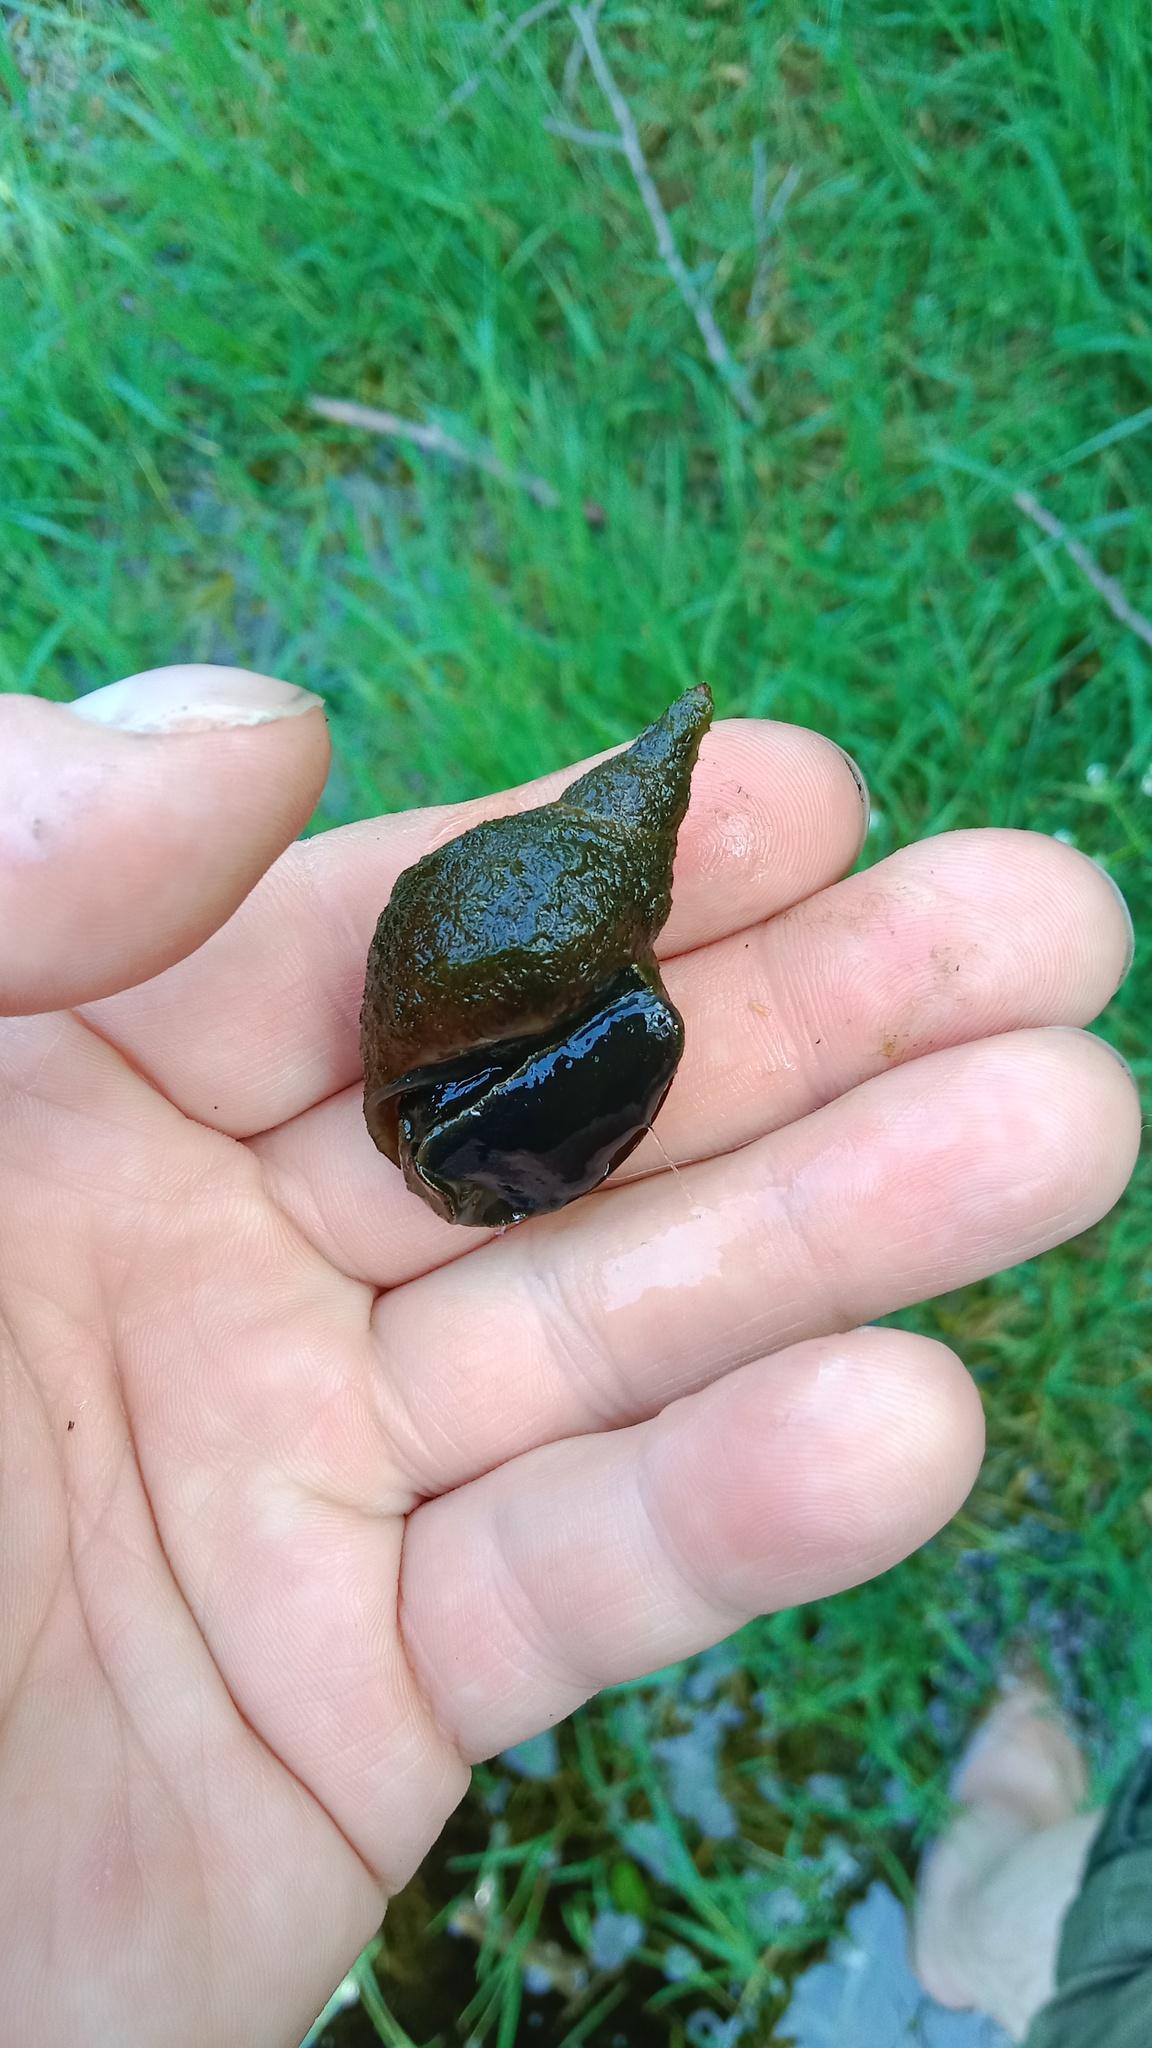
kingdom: Animalia
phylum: Mollusca
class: Gastropoda
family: Lymnaeidae
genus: Lymnaea
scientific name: Lymnaea stagnalis
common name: Great pond snail
